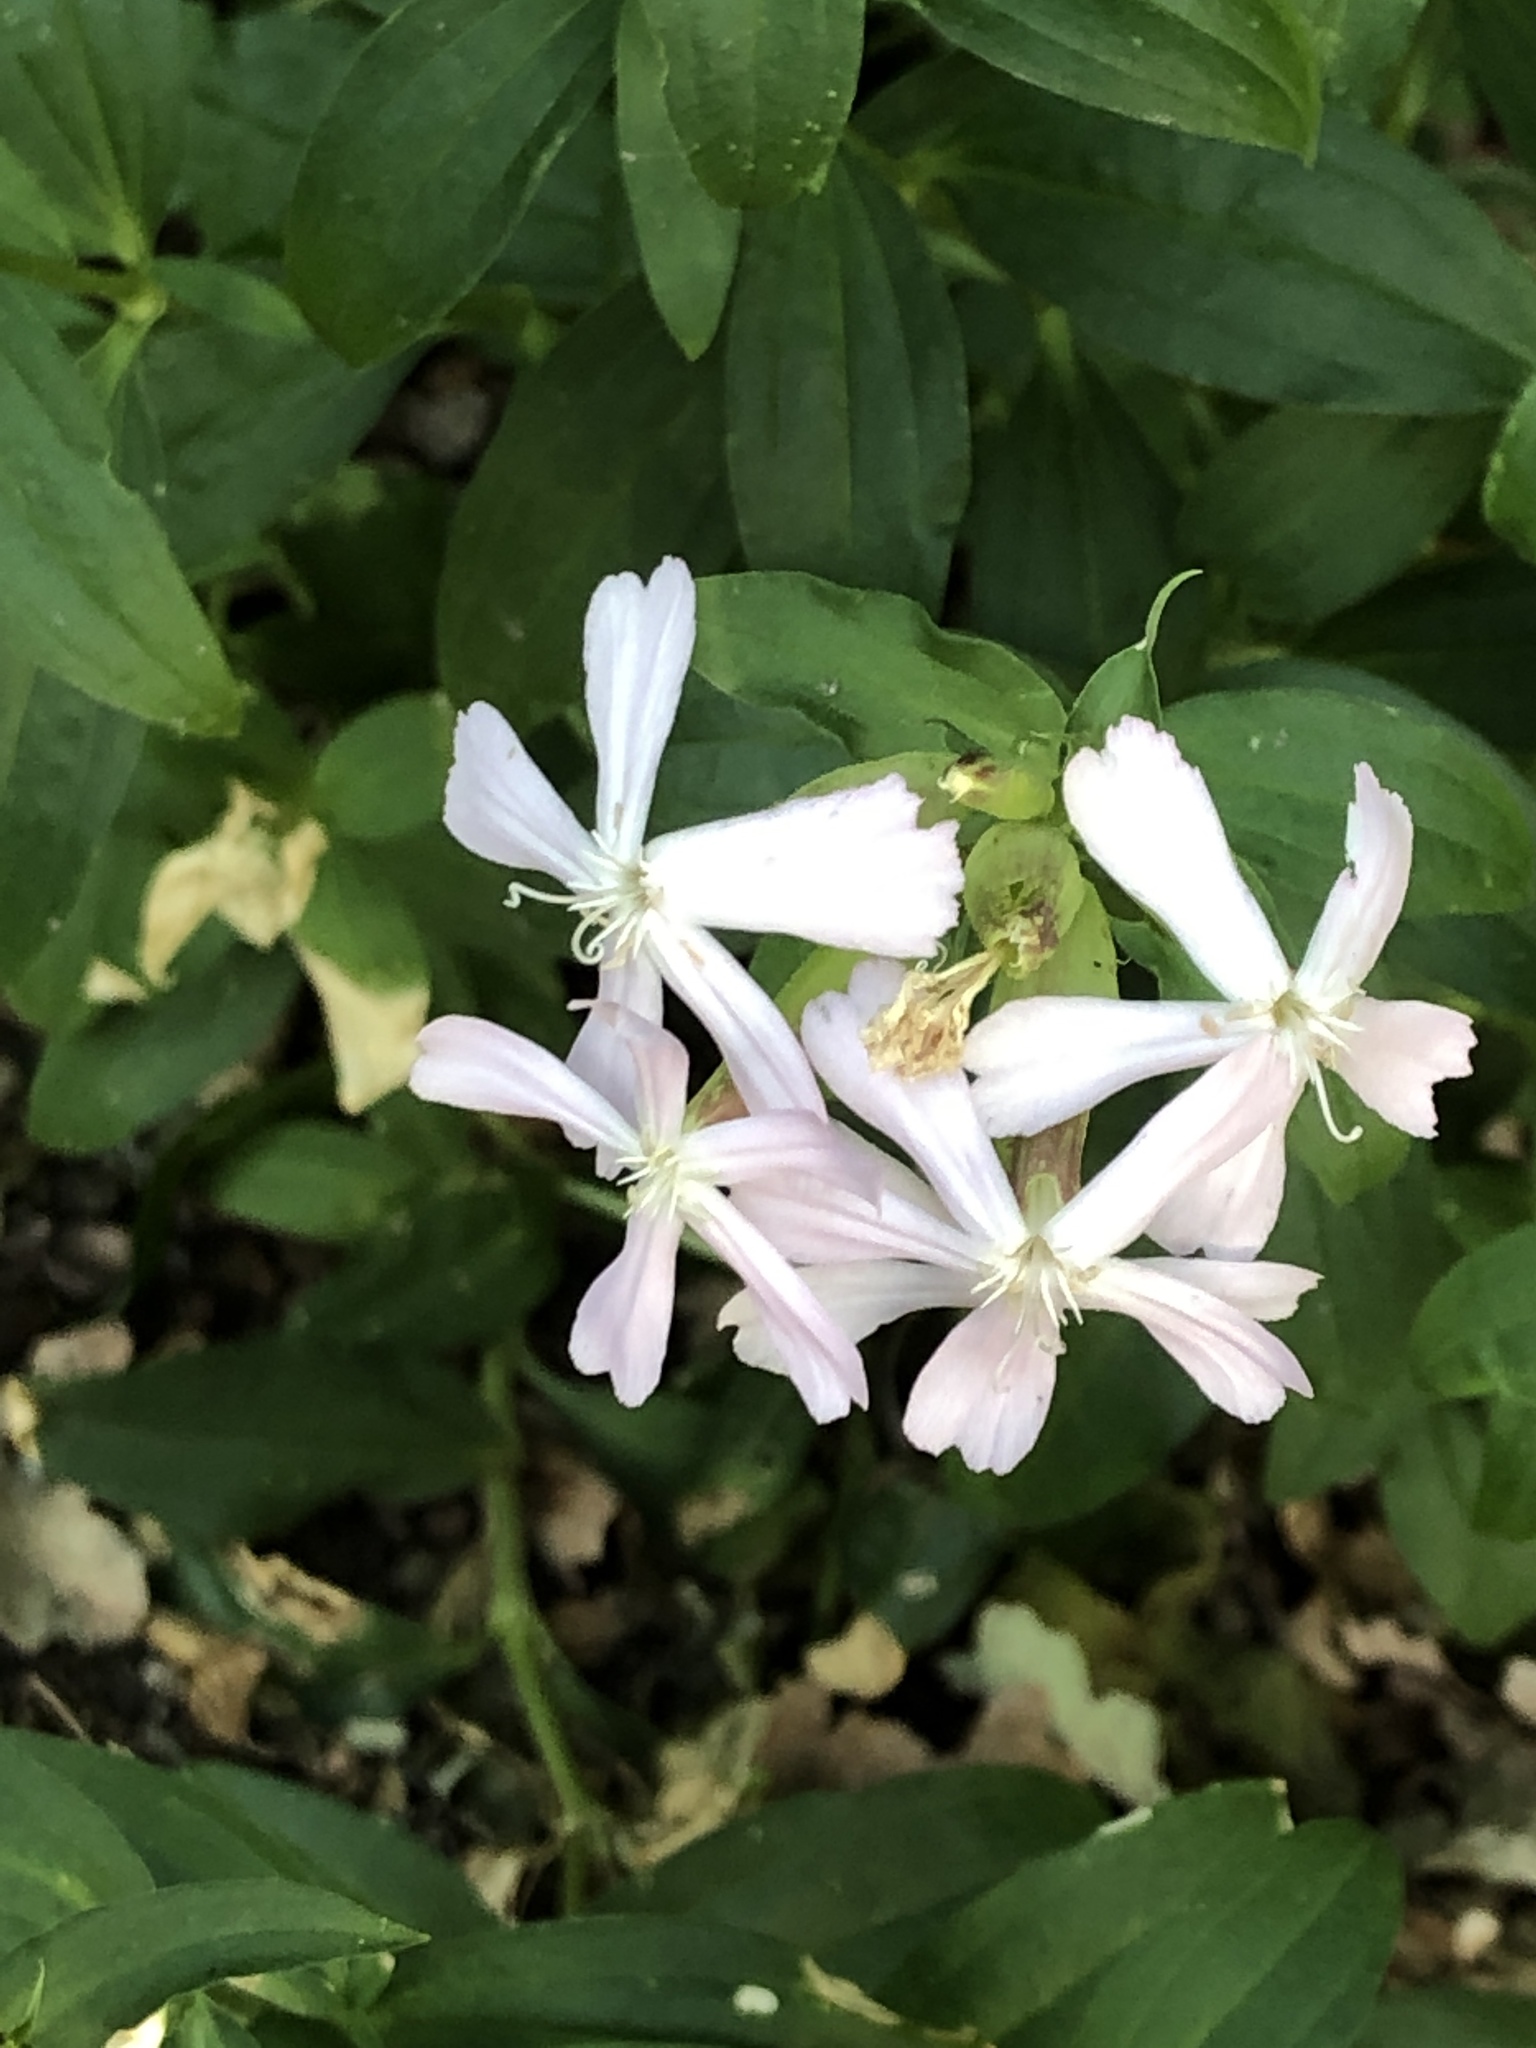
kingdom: Plantae
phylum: Tracheophyta
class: Magnoliopsida
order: Caryophyllales
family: Caryophyllaceae
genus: Saponaria
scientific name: Saponaria officinalis
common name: Soapwort
